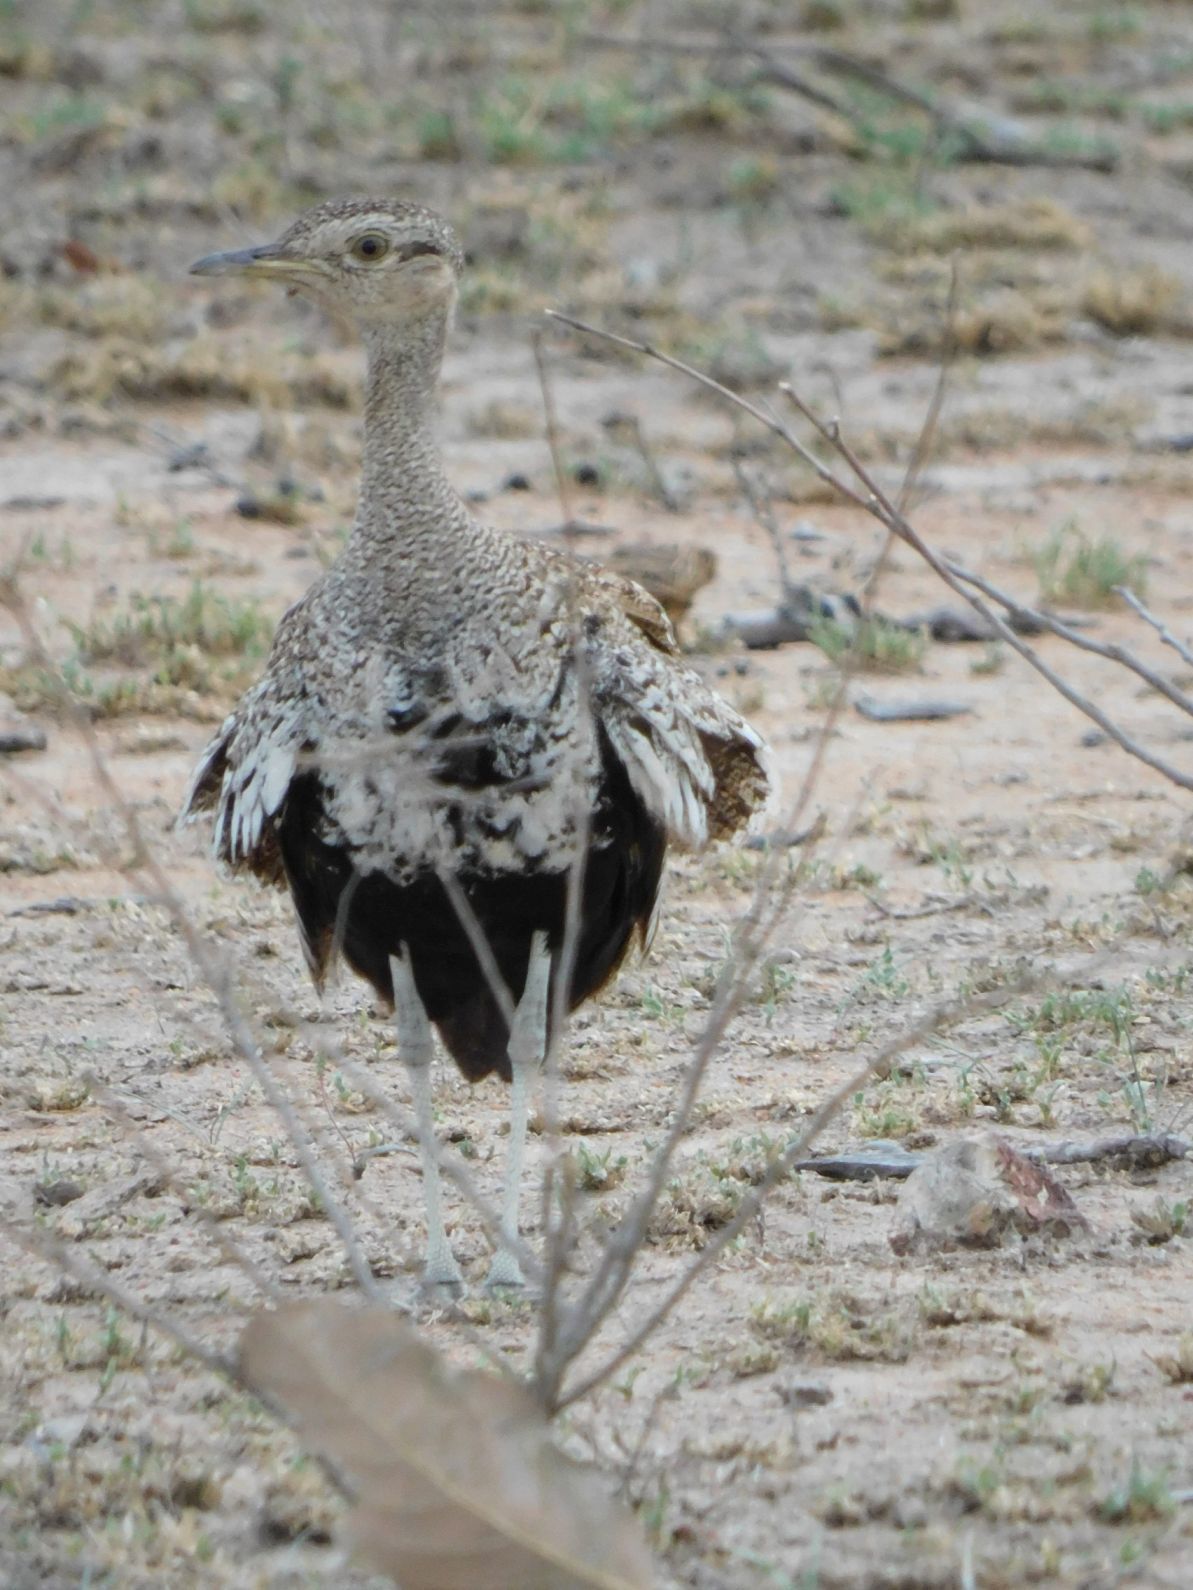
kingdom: Animalia
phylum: Chordata
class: Aves
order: Otidiformes
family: Otididae
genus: Lophotis
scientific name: Lophotis ruficrista
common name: Red-crested korhaan
